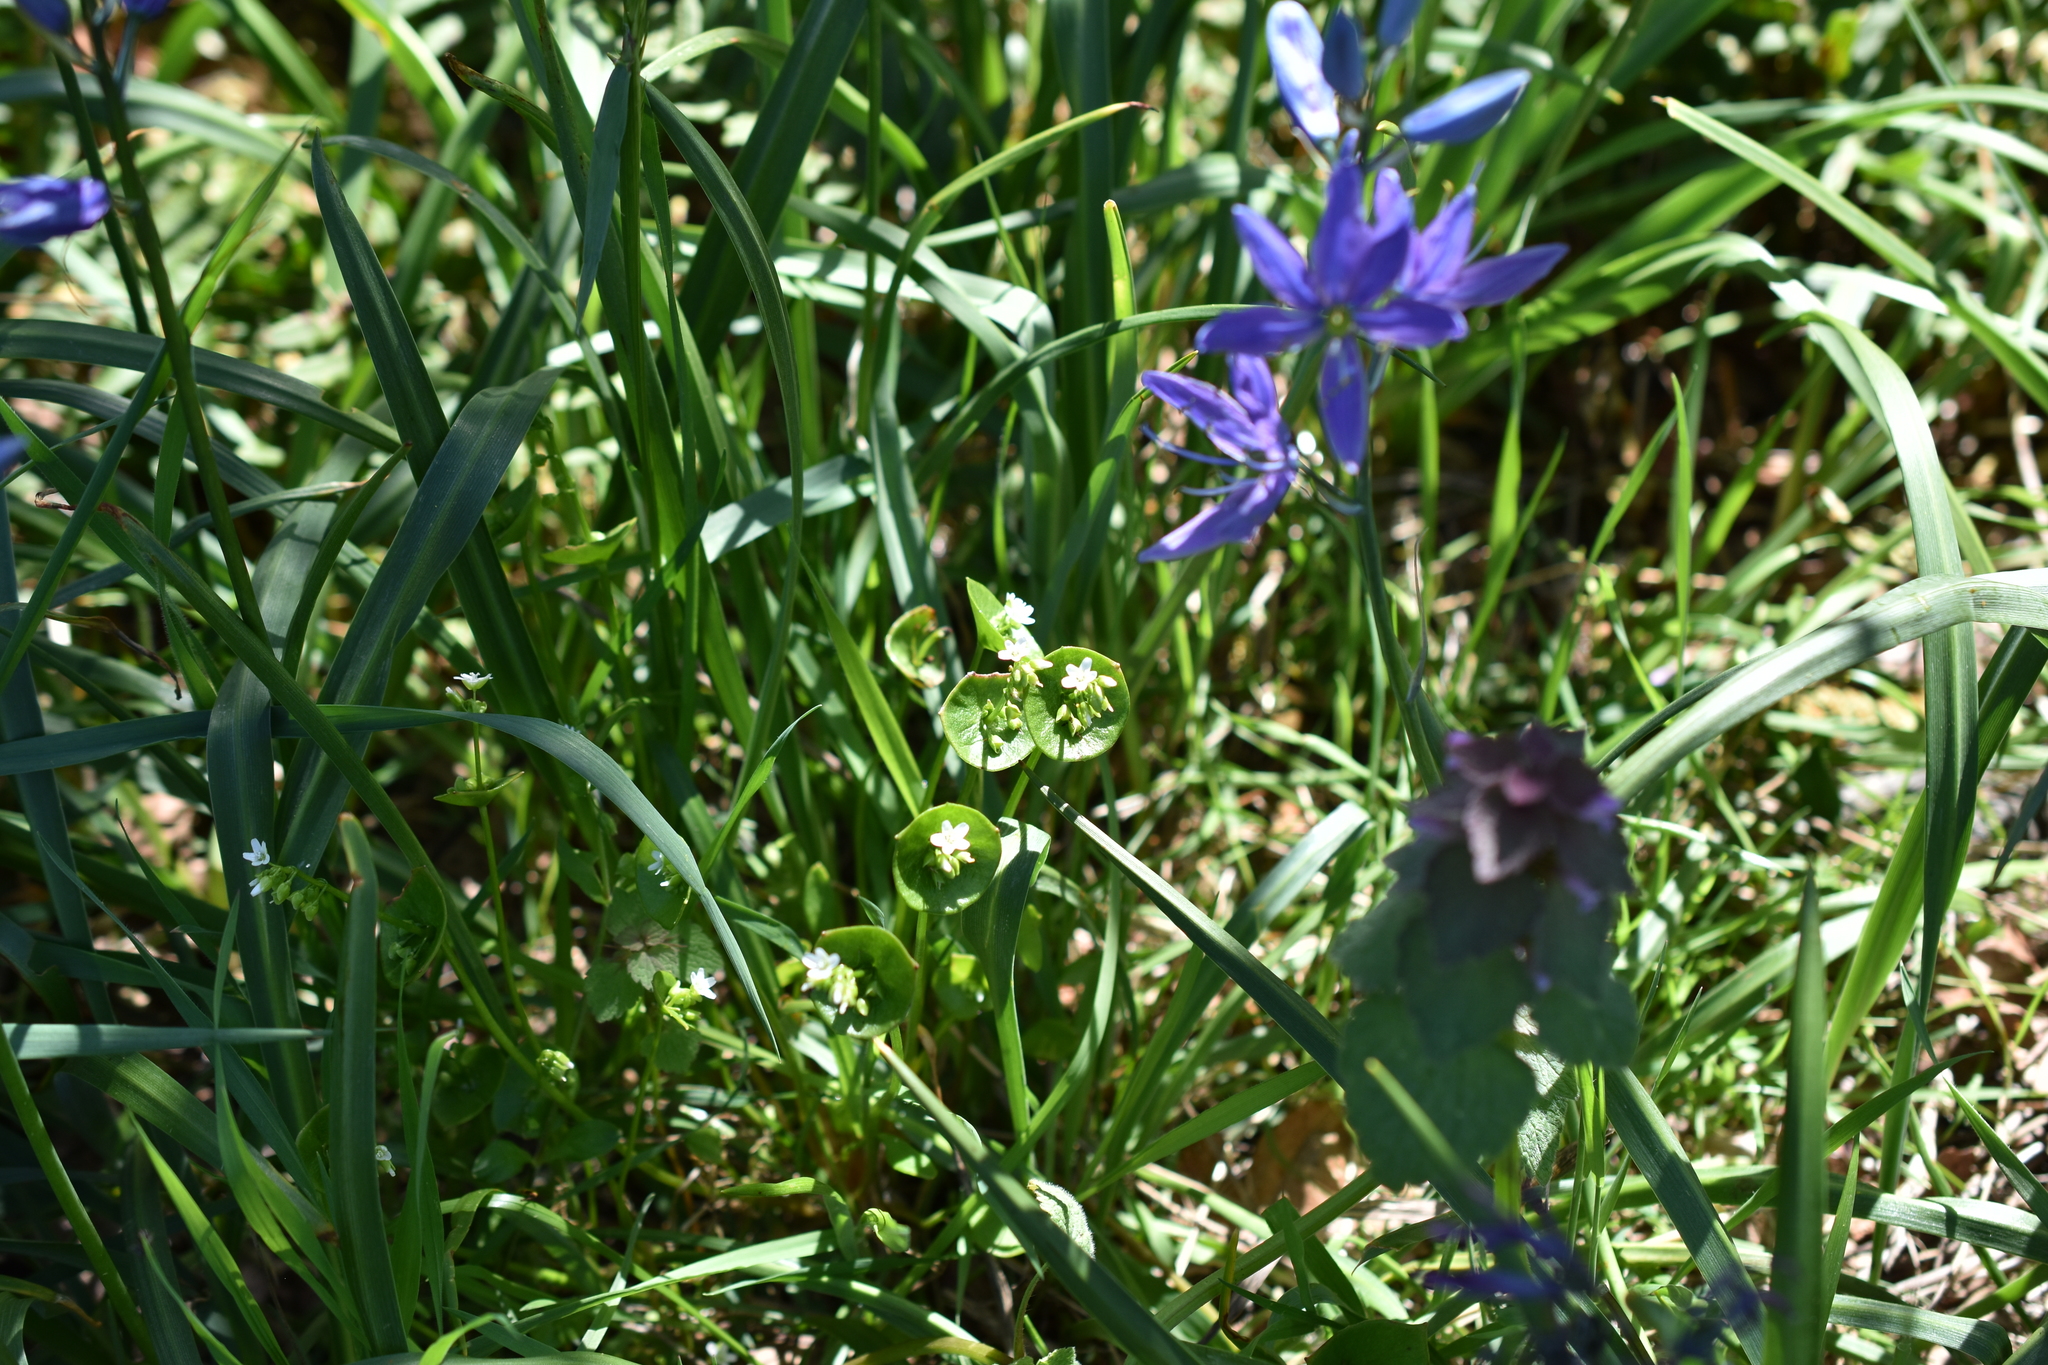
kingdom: Plantae
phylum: Tracheophyta
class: Magnoliopsida
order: Lamiales
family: Lamiaceae
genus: Lamium
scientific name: Lamium purpureum
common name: Red dead-nettle
